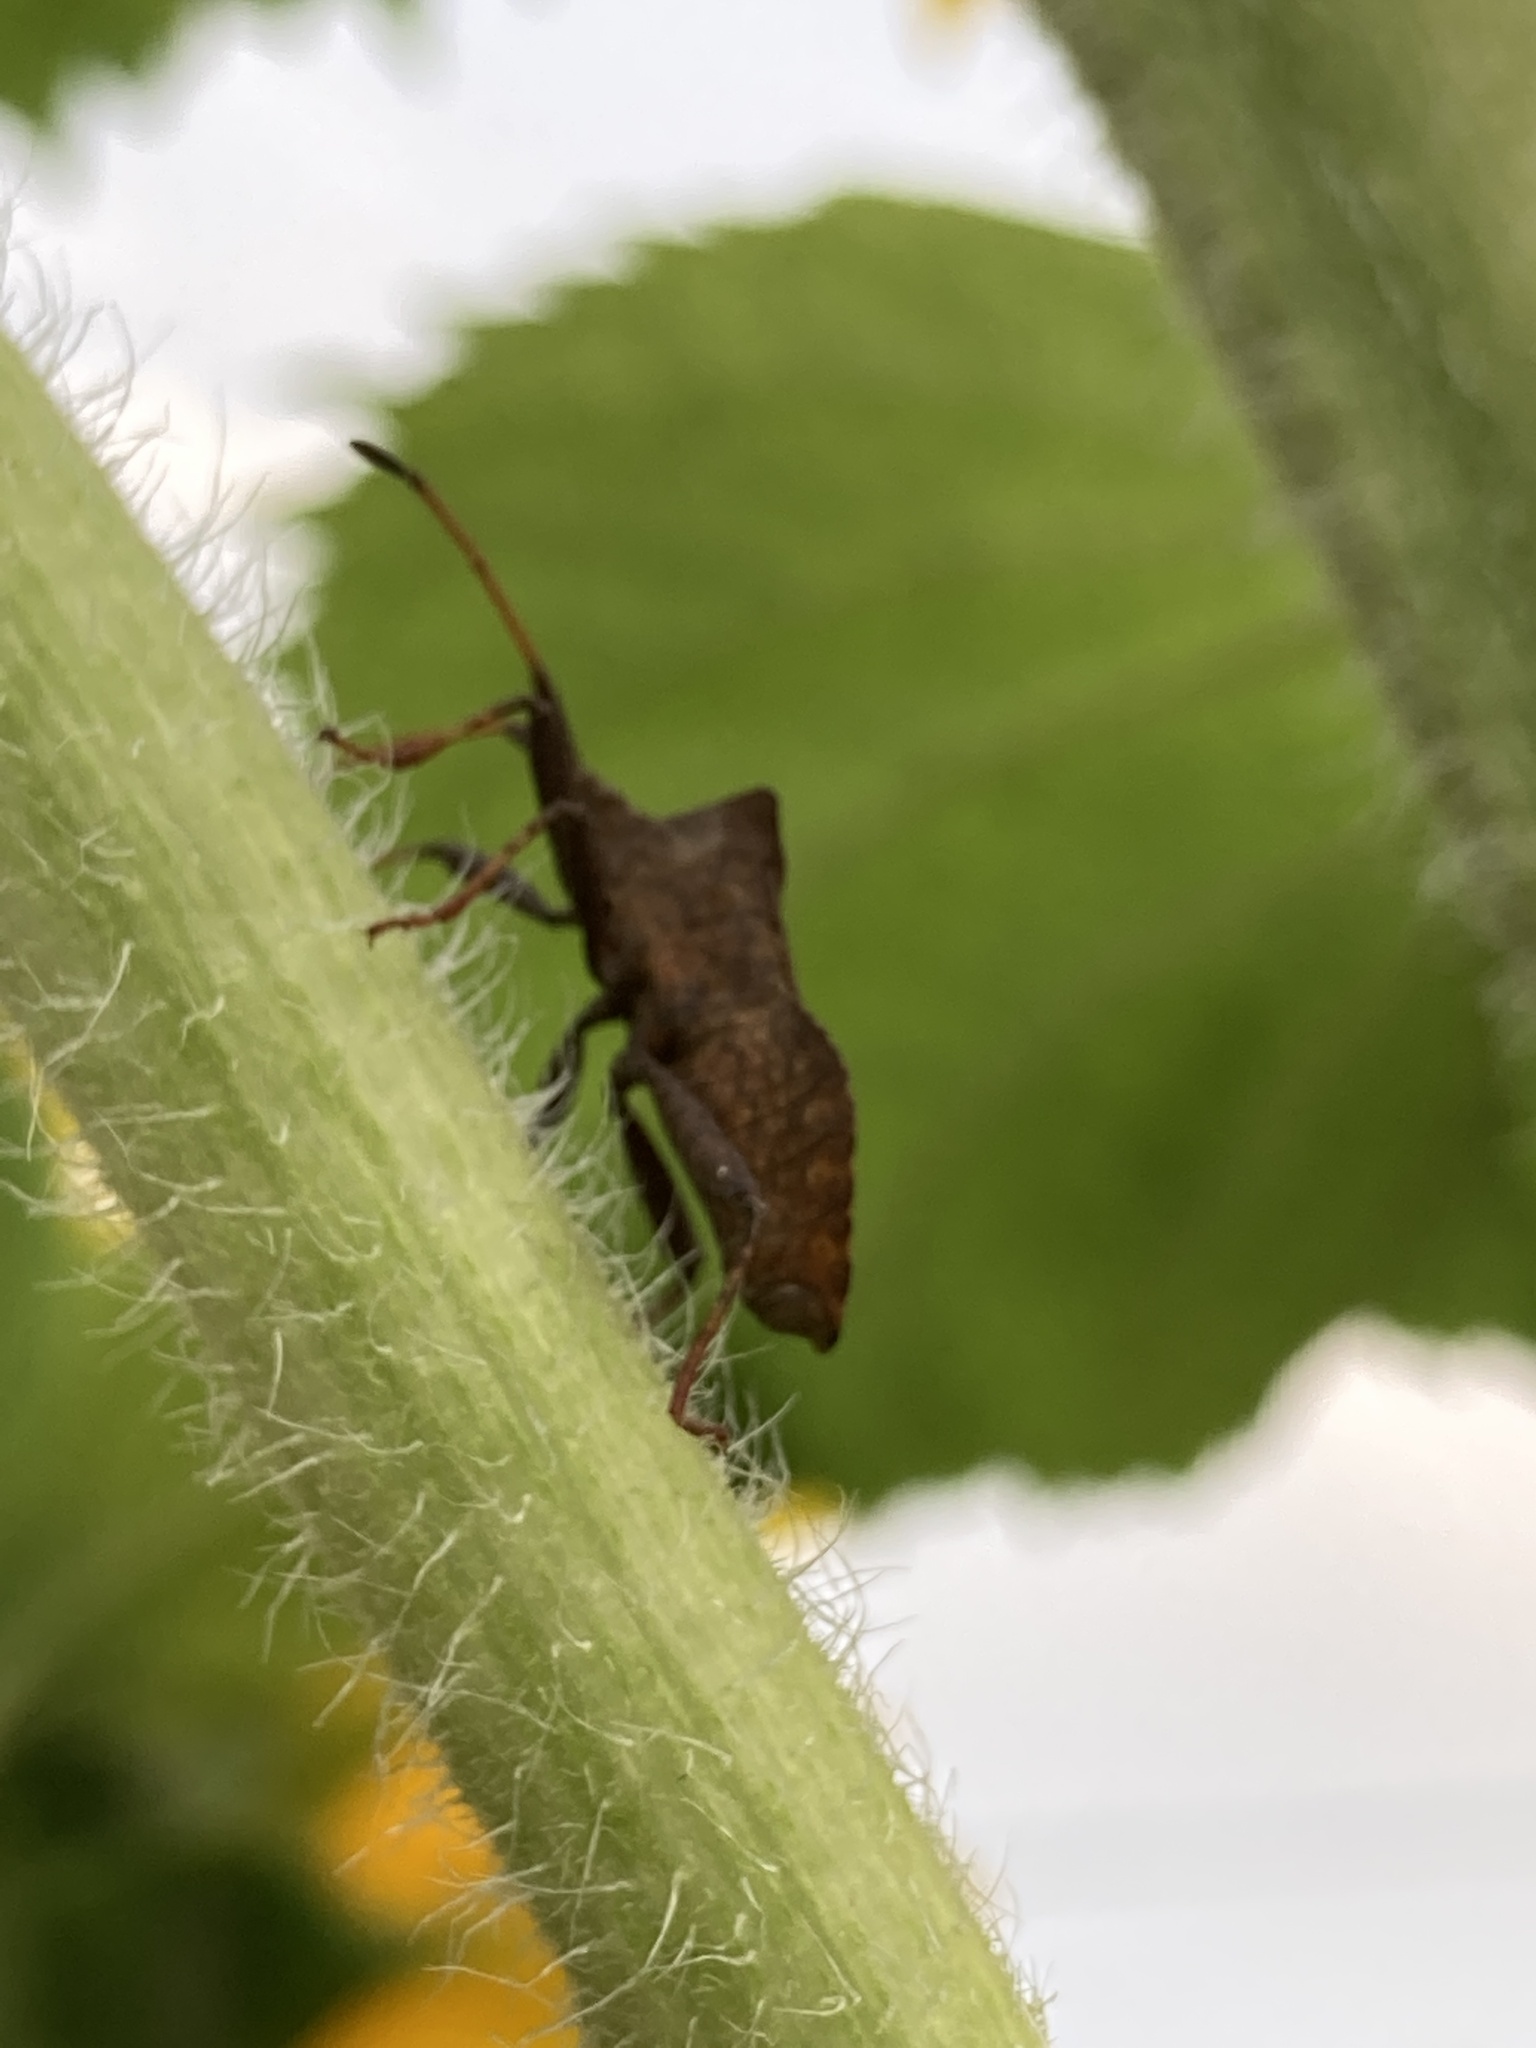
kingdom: Animalia
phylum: Arthropoda
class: Insecta
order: Hemiptera
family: Coreidae
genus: Coreus
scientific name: Coreus marginatus
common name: Dock bug
